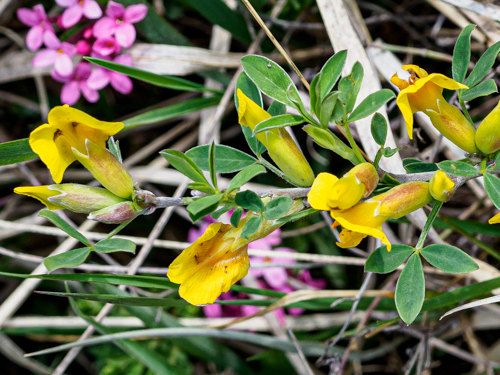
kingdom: Plantae
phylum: Tracheophyta
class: Magnoliopsida
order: Fabales
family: Fabaceae
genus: Chamaecytisus
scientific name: Chamaecytisus ratisbonensis
